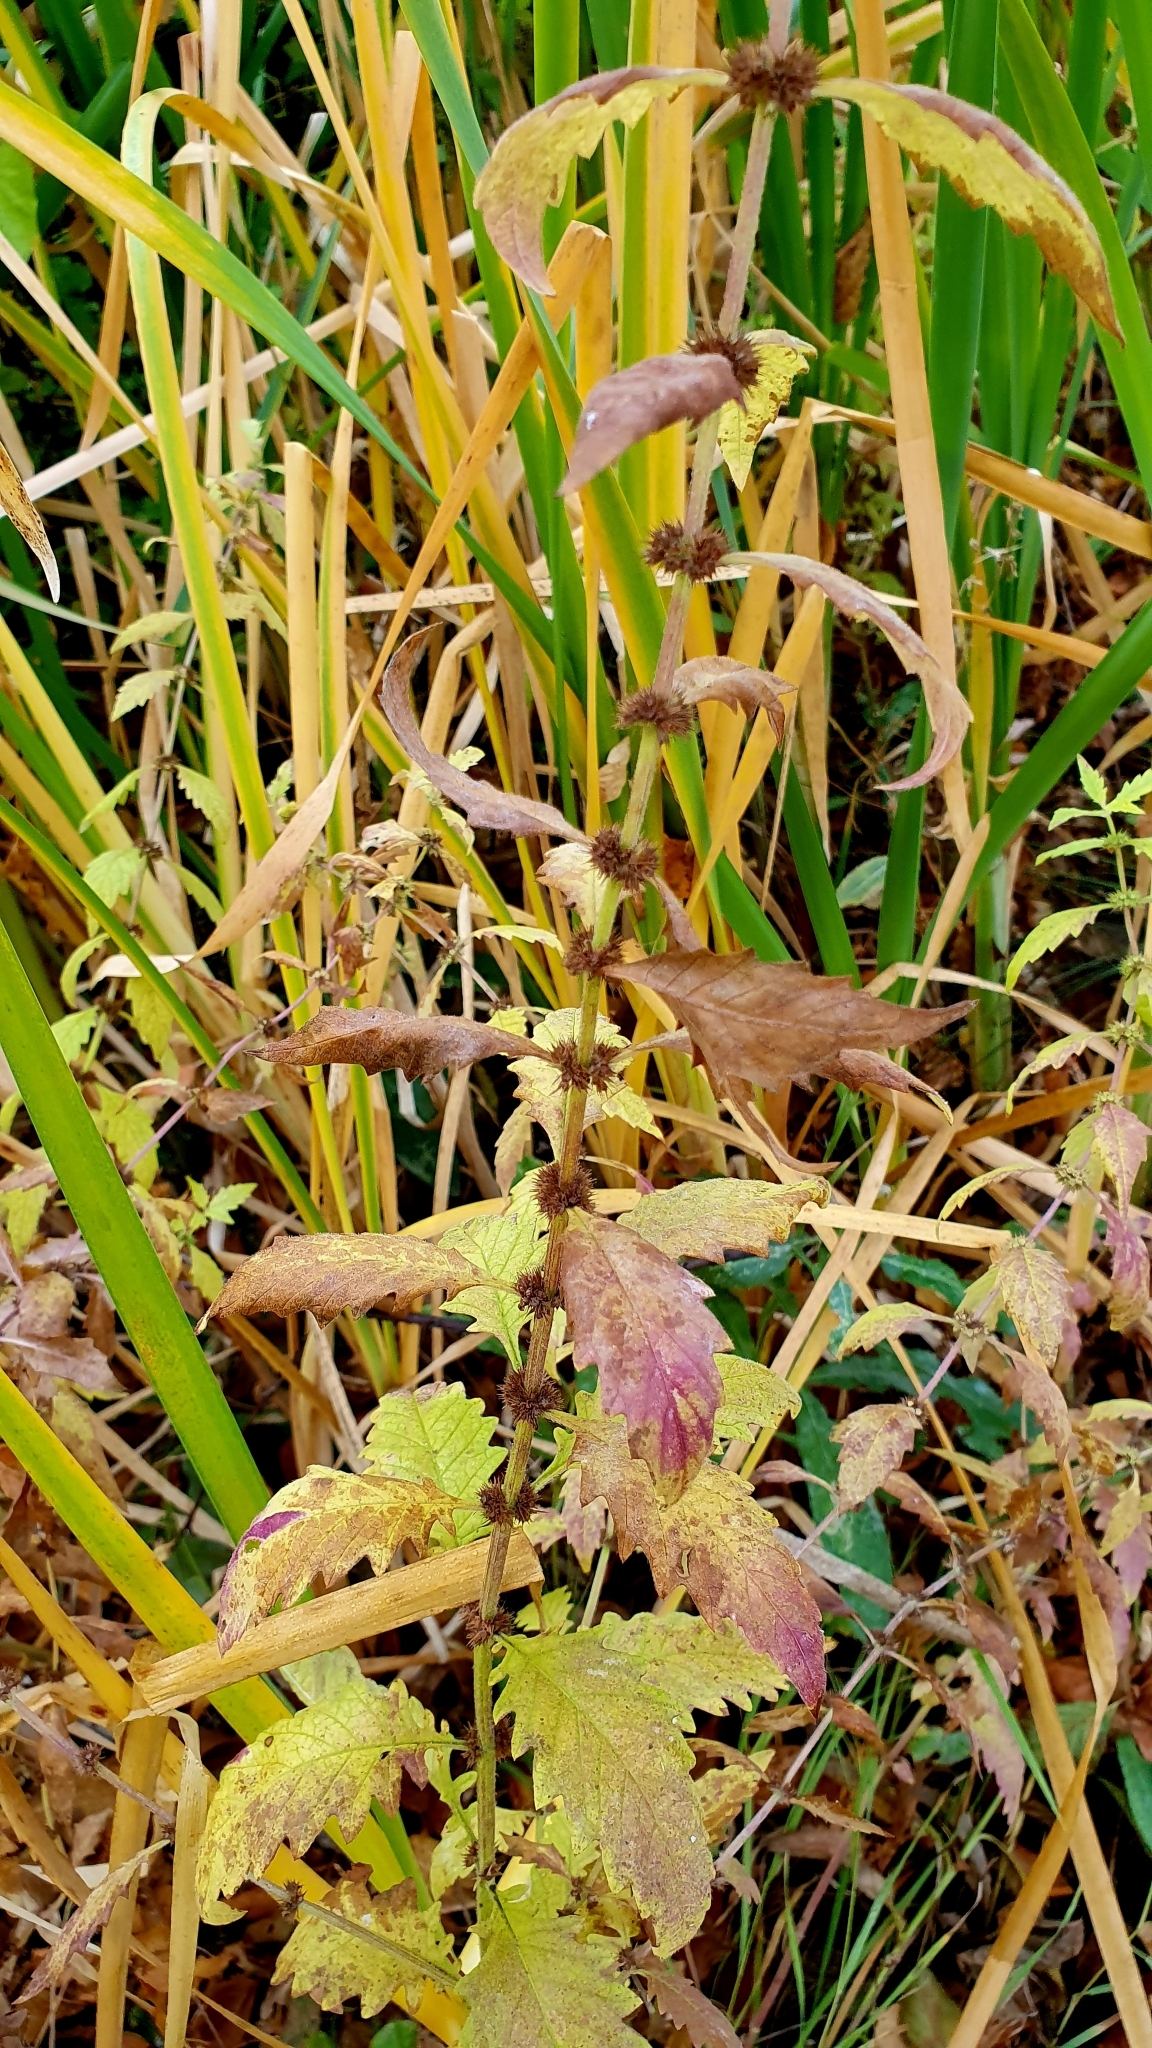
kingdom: Plantae
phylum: Tracheophyta
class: Magnoliopsida
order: Lamiales
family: Lamiaceae
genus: Lycopus
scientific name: Lycopus europaeus
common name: European bugleweed
